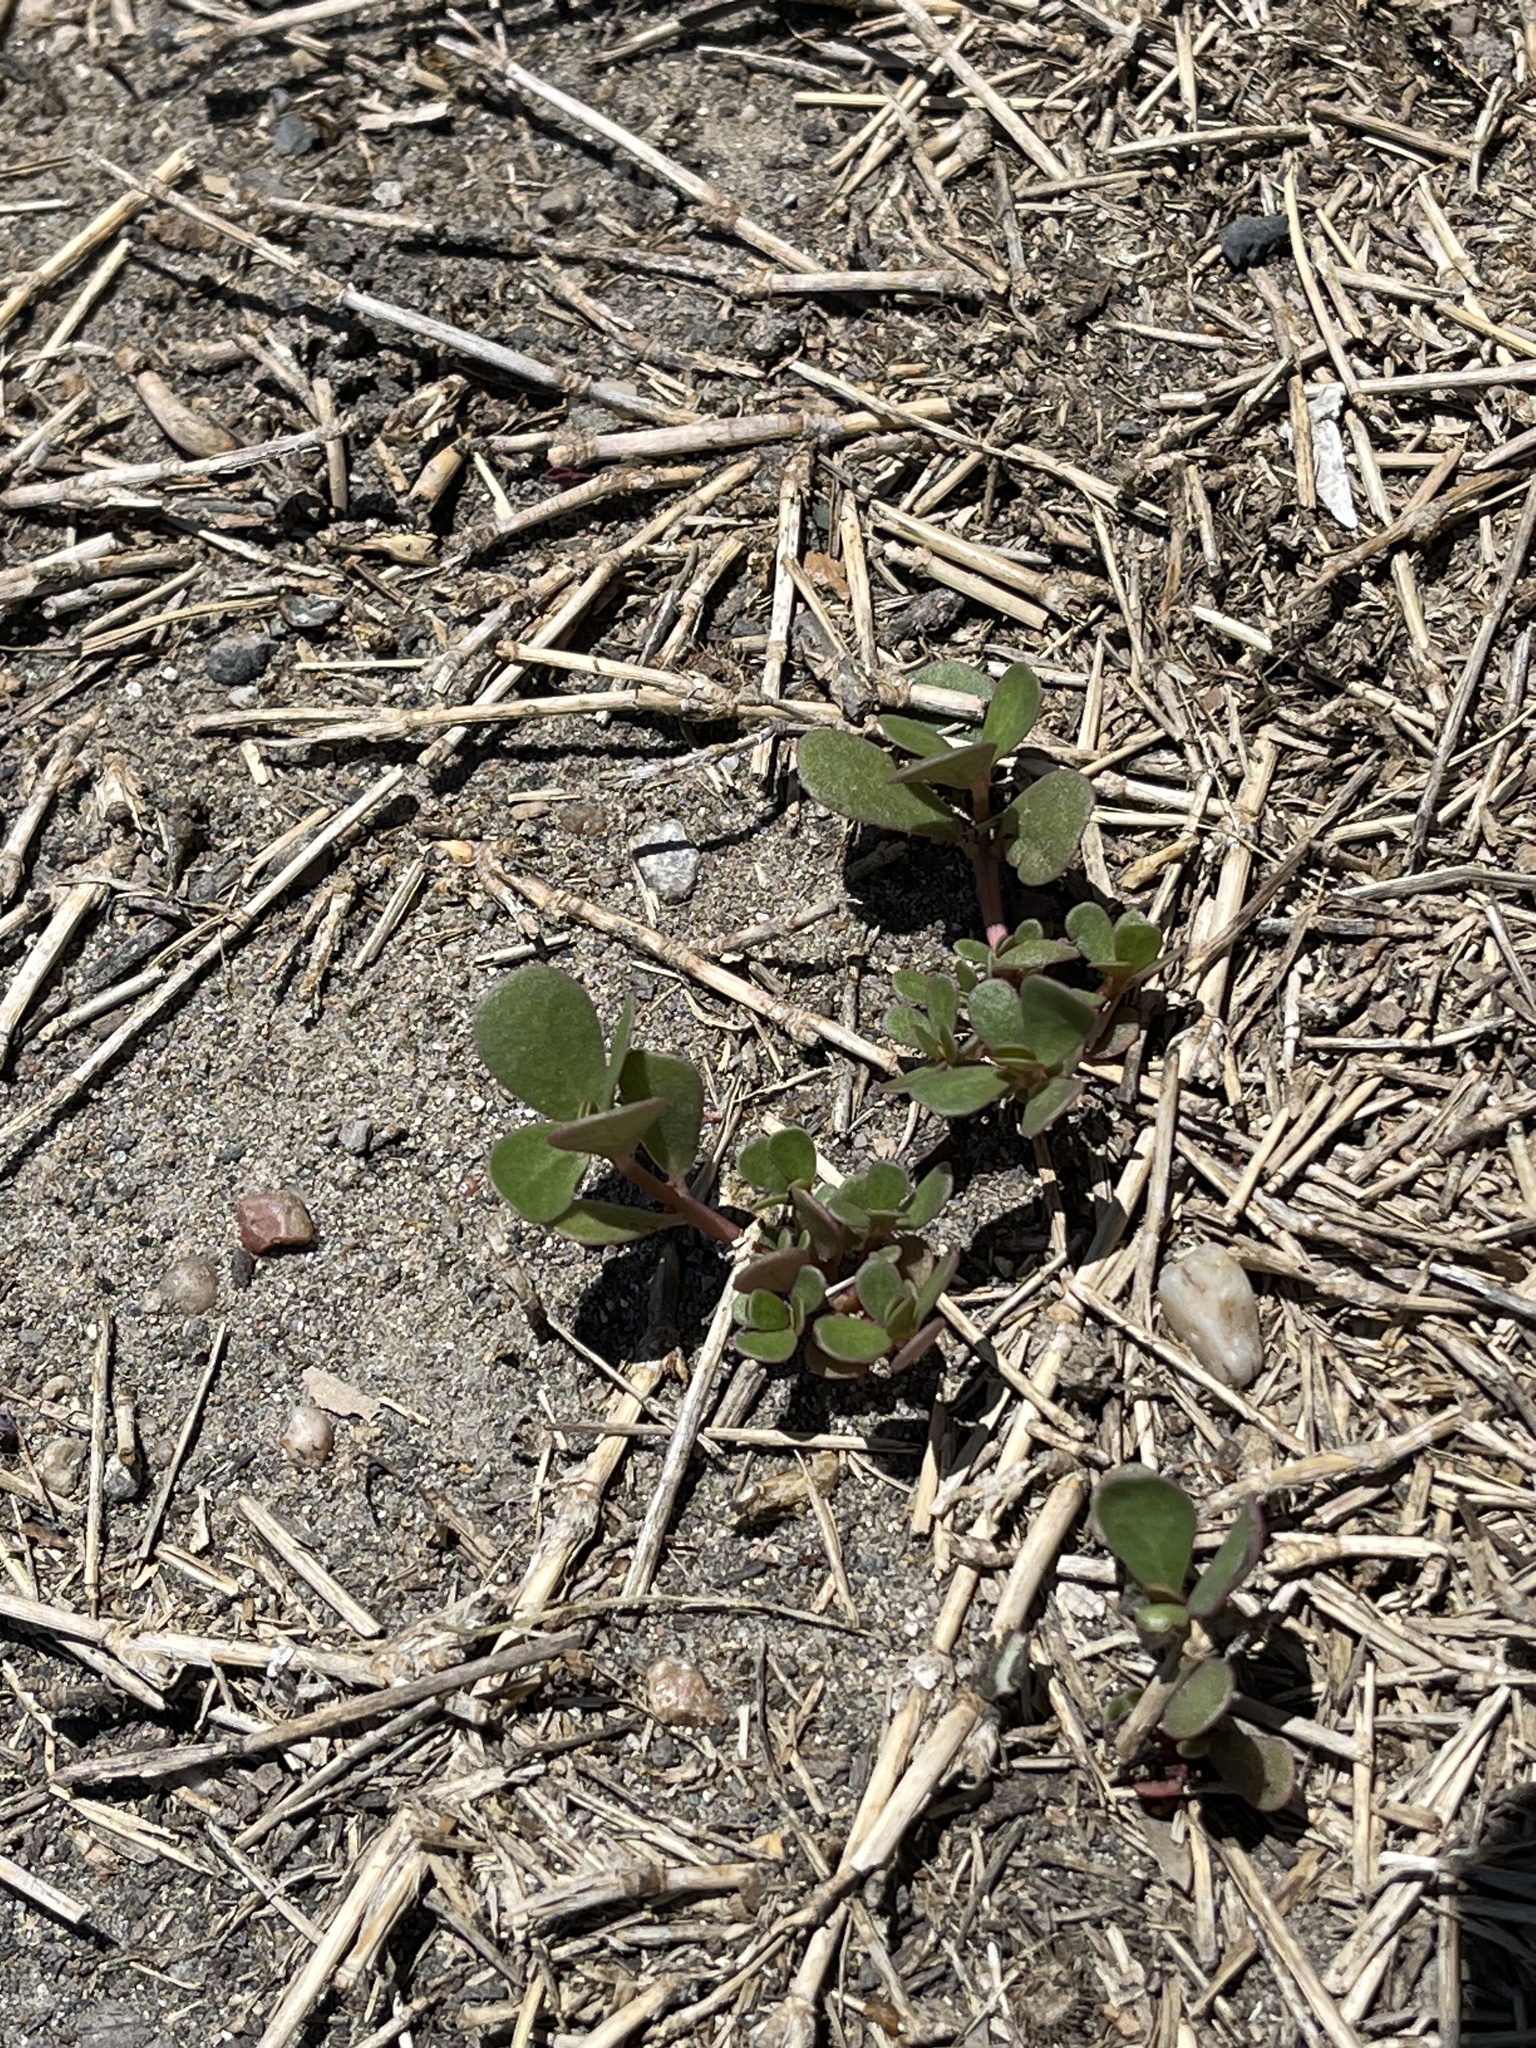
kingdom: Plantae
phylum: Tracheophyta
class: Magnoliopsida
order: Caryophyllales
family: Portulacaceae
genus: Portulaca
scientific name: Portulaca oleracea
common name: Common purslane
